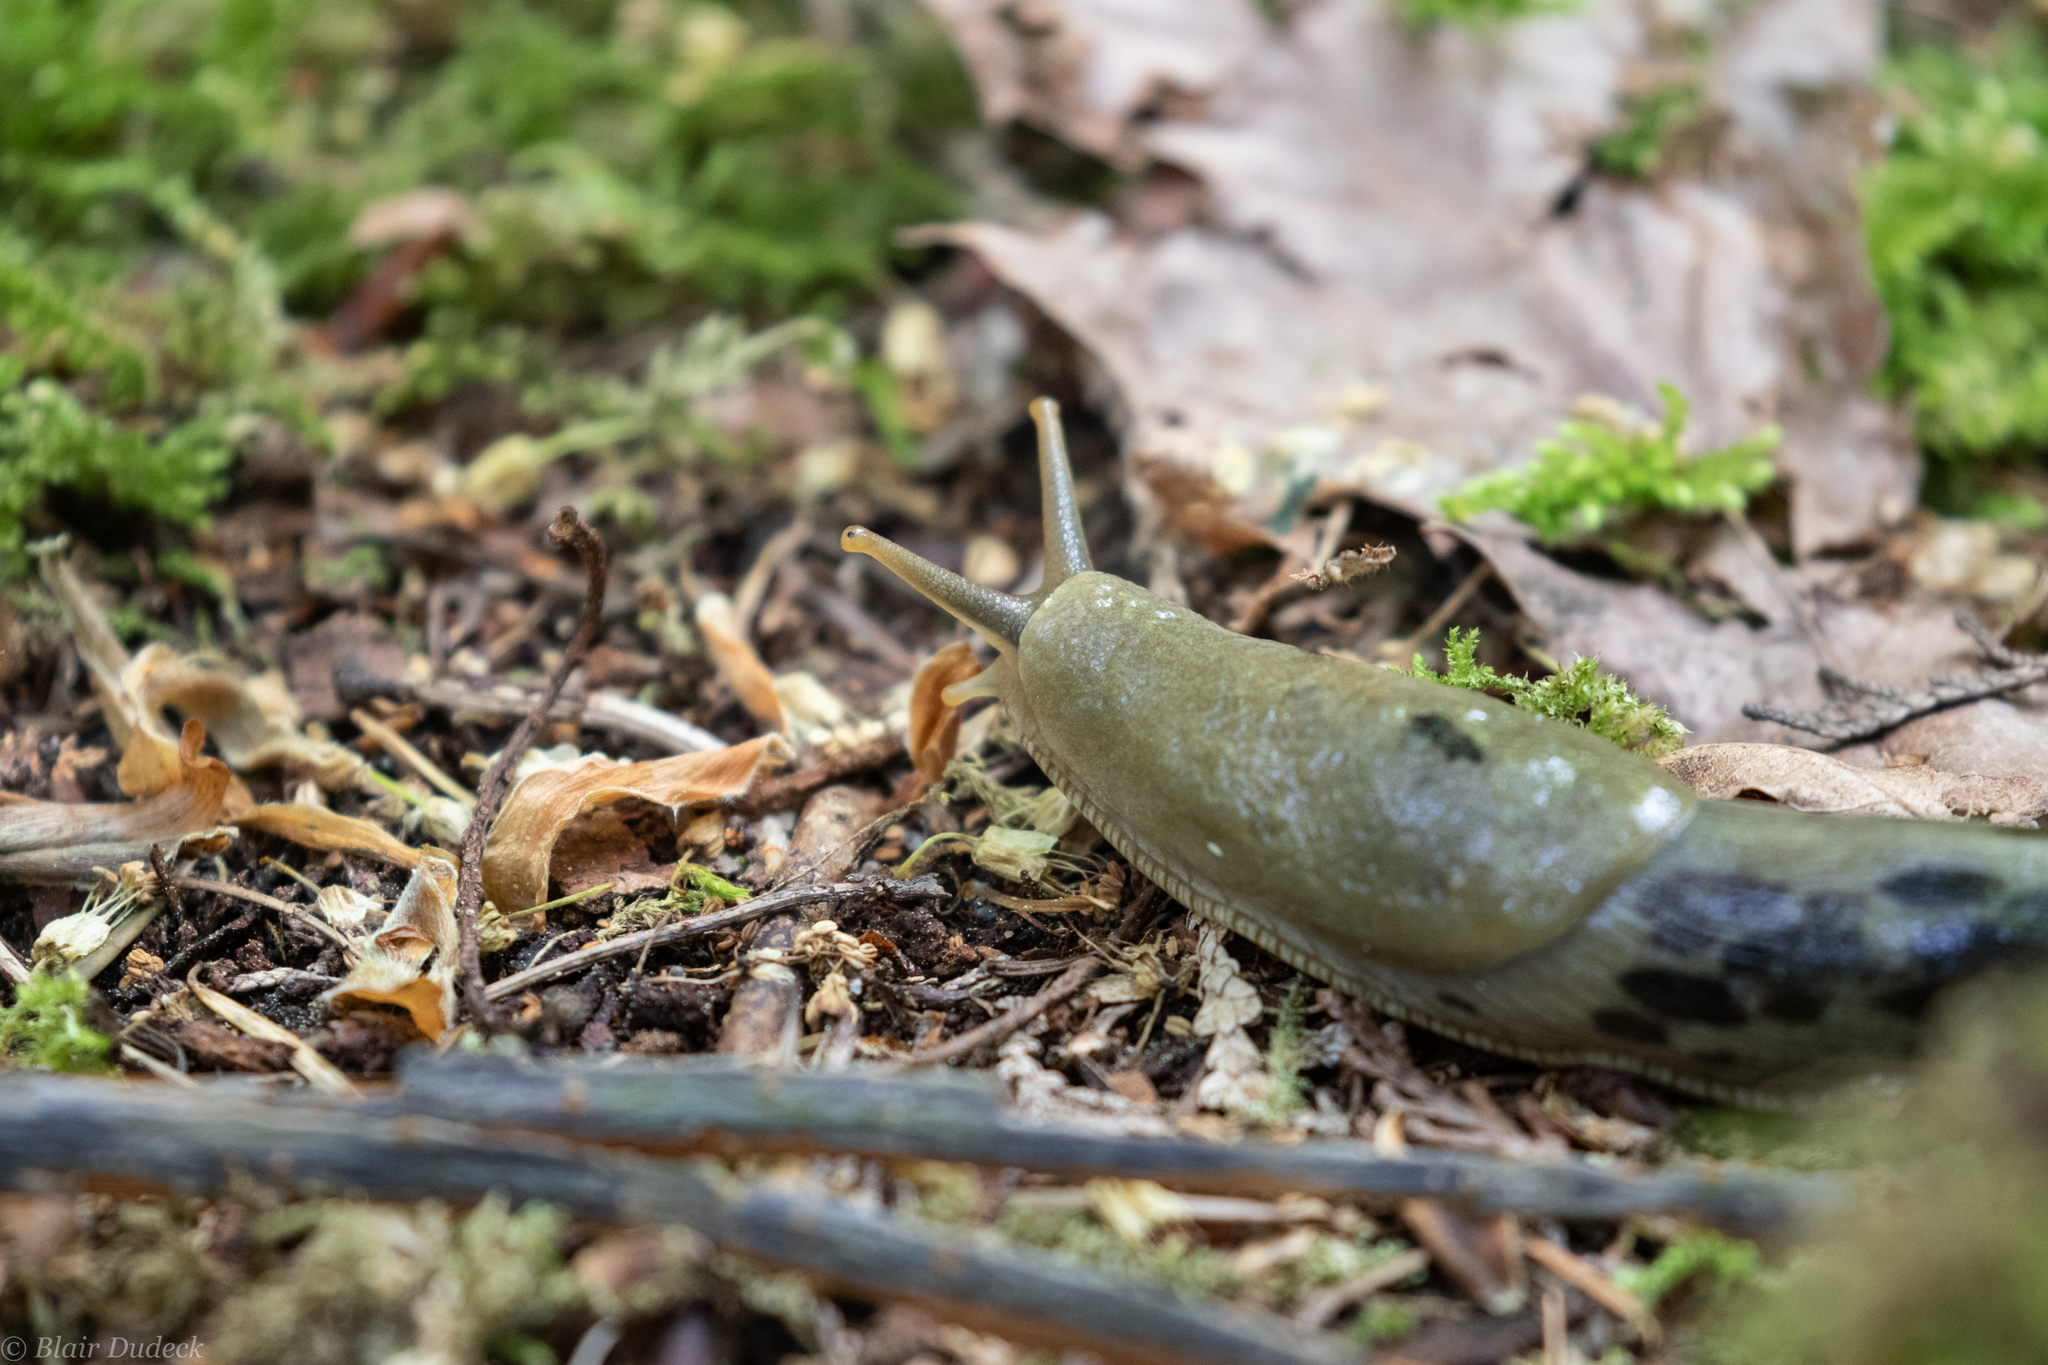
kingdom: Animalia
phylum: Mollusca
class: Gastropoda
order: Stylommatophora
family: Ariolimacidae
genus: Ariolimax
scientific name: Ariolimax columbianus
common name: Pacific banana slug
